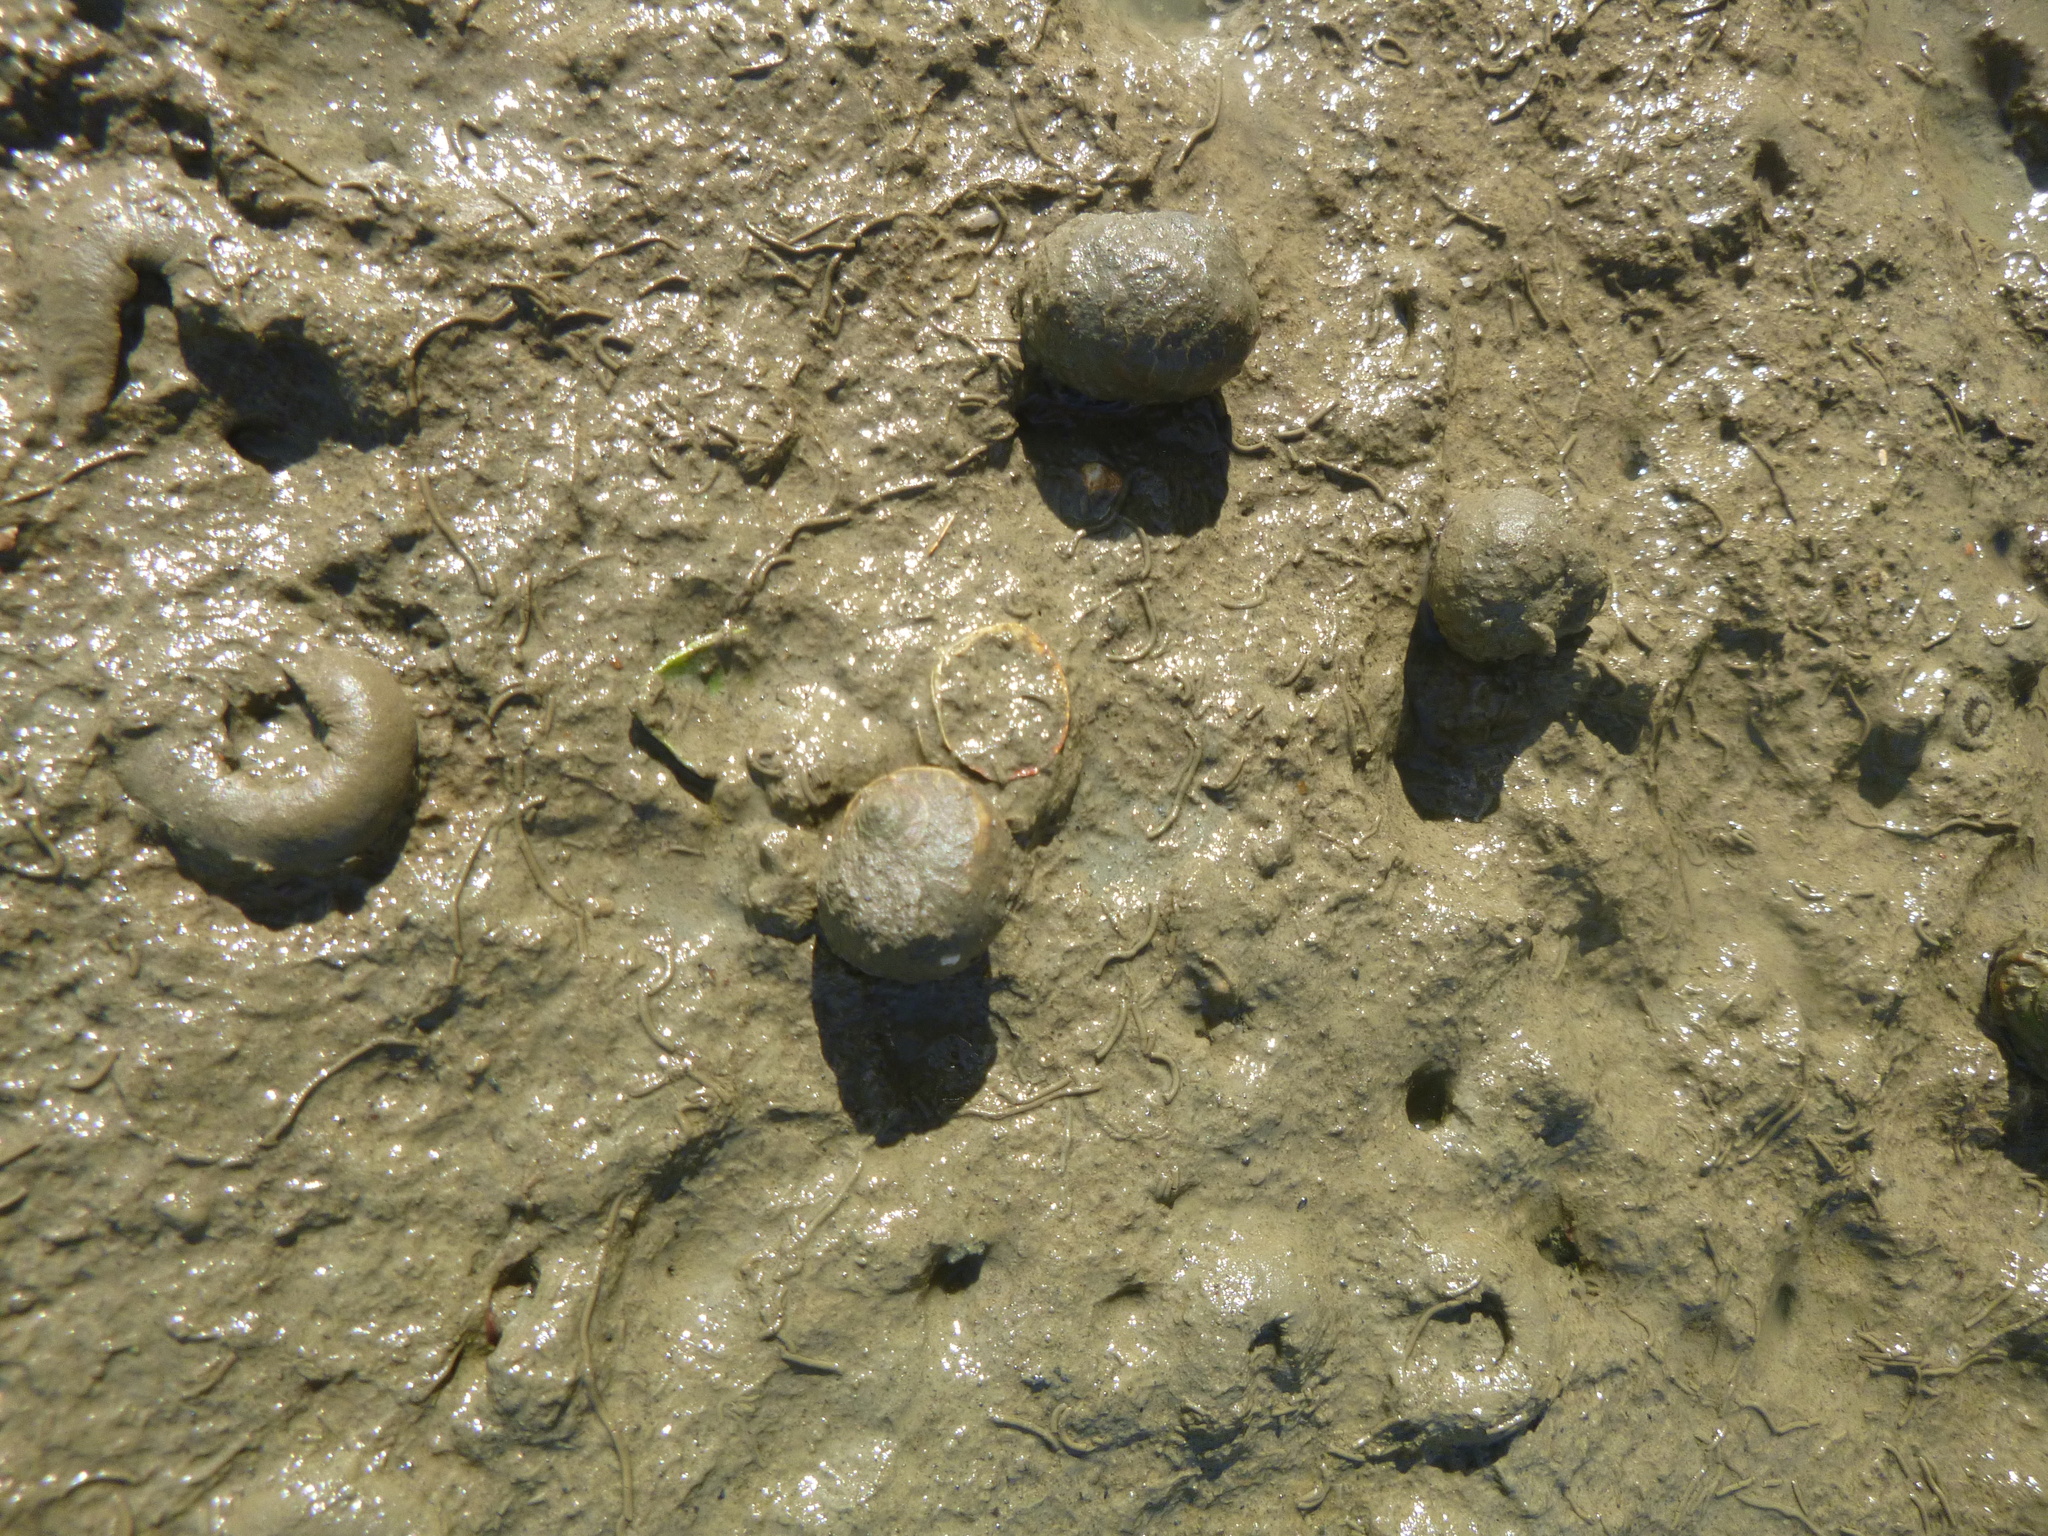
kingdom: Animalia
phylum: Mollusca
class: Gastropoda
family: Amphibolidae
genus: Amphibola
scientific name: Amphibola crenata
